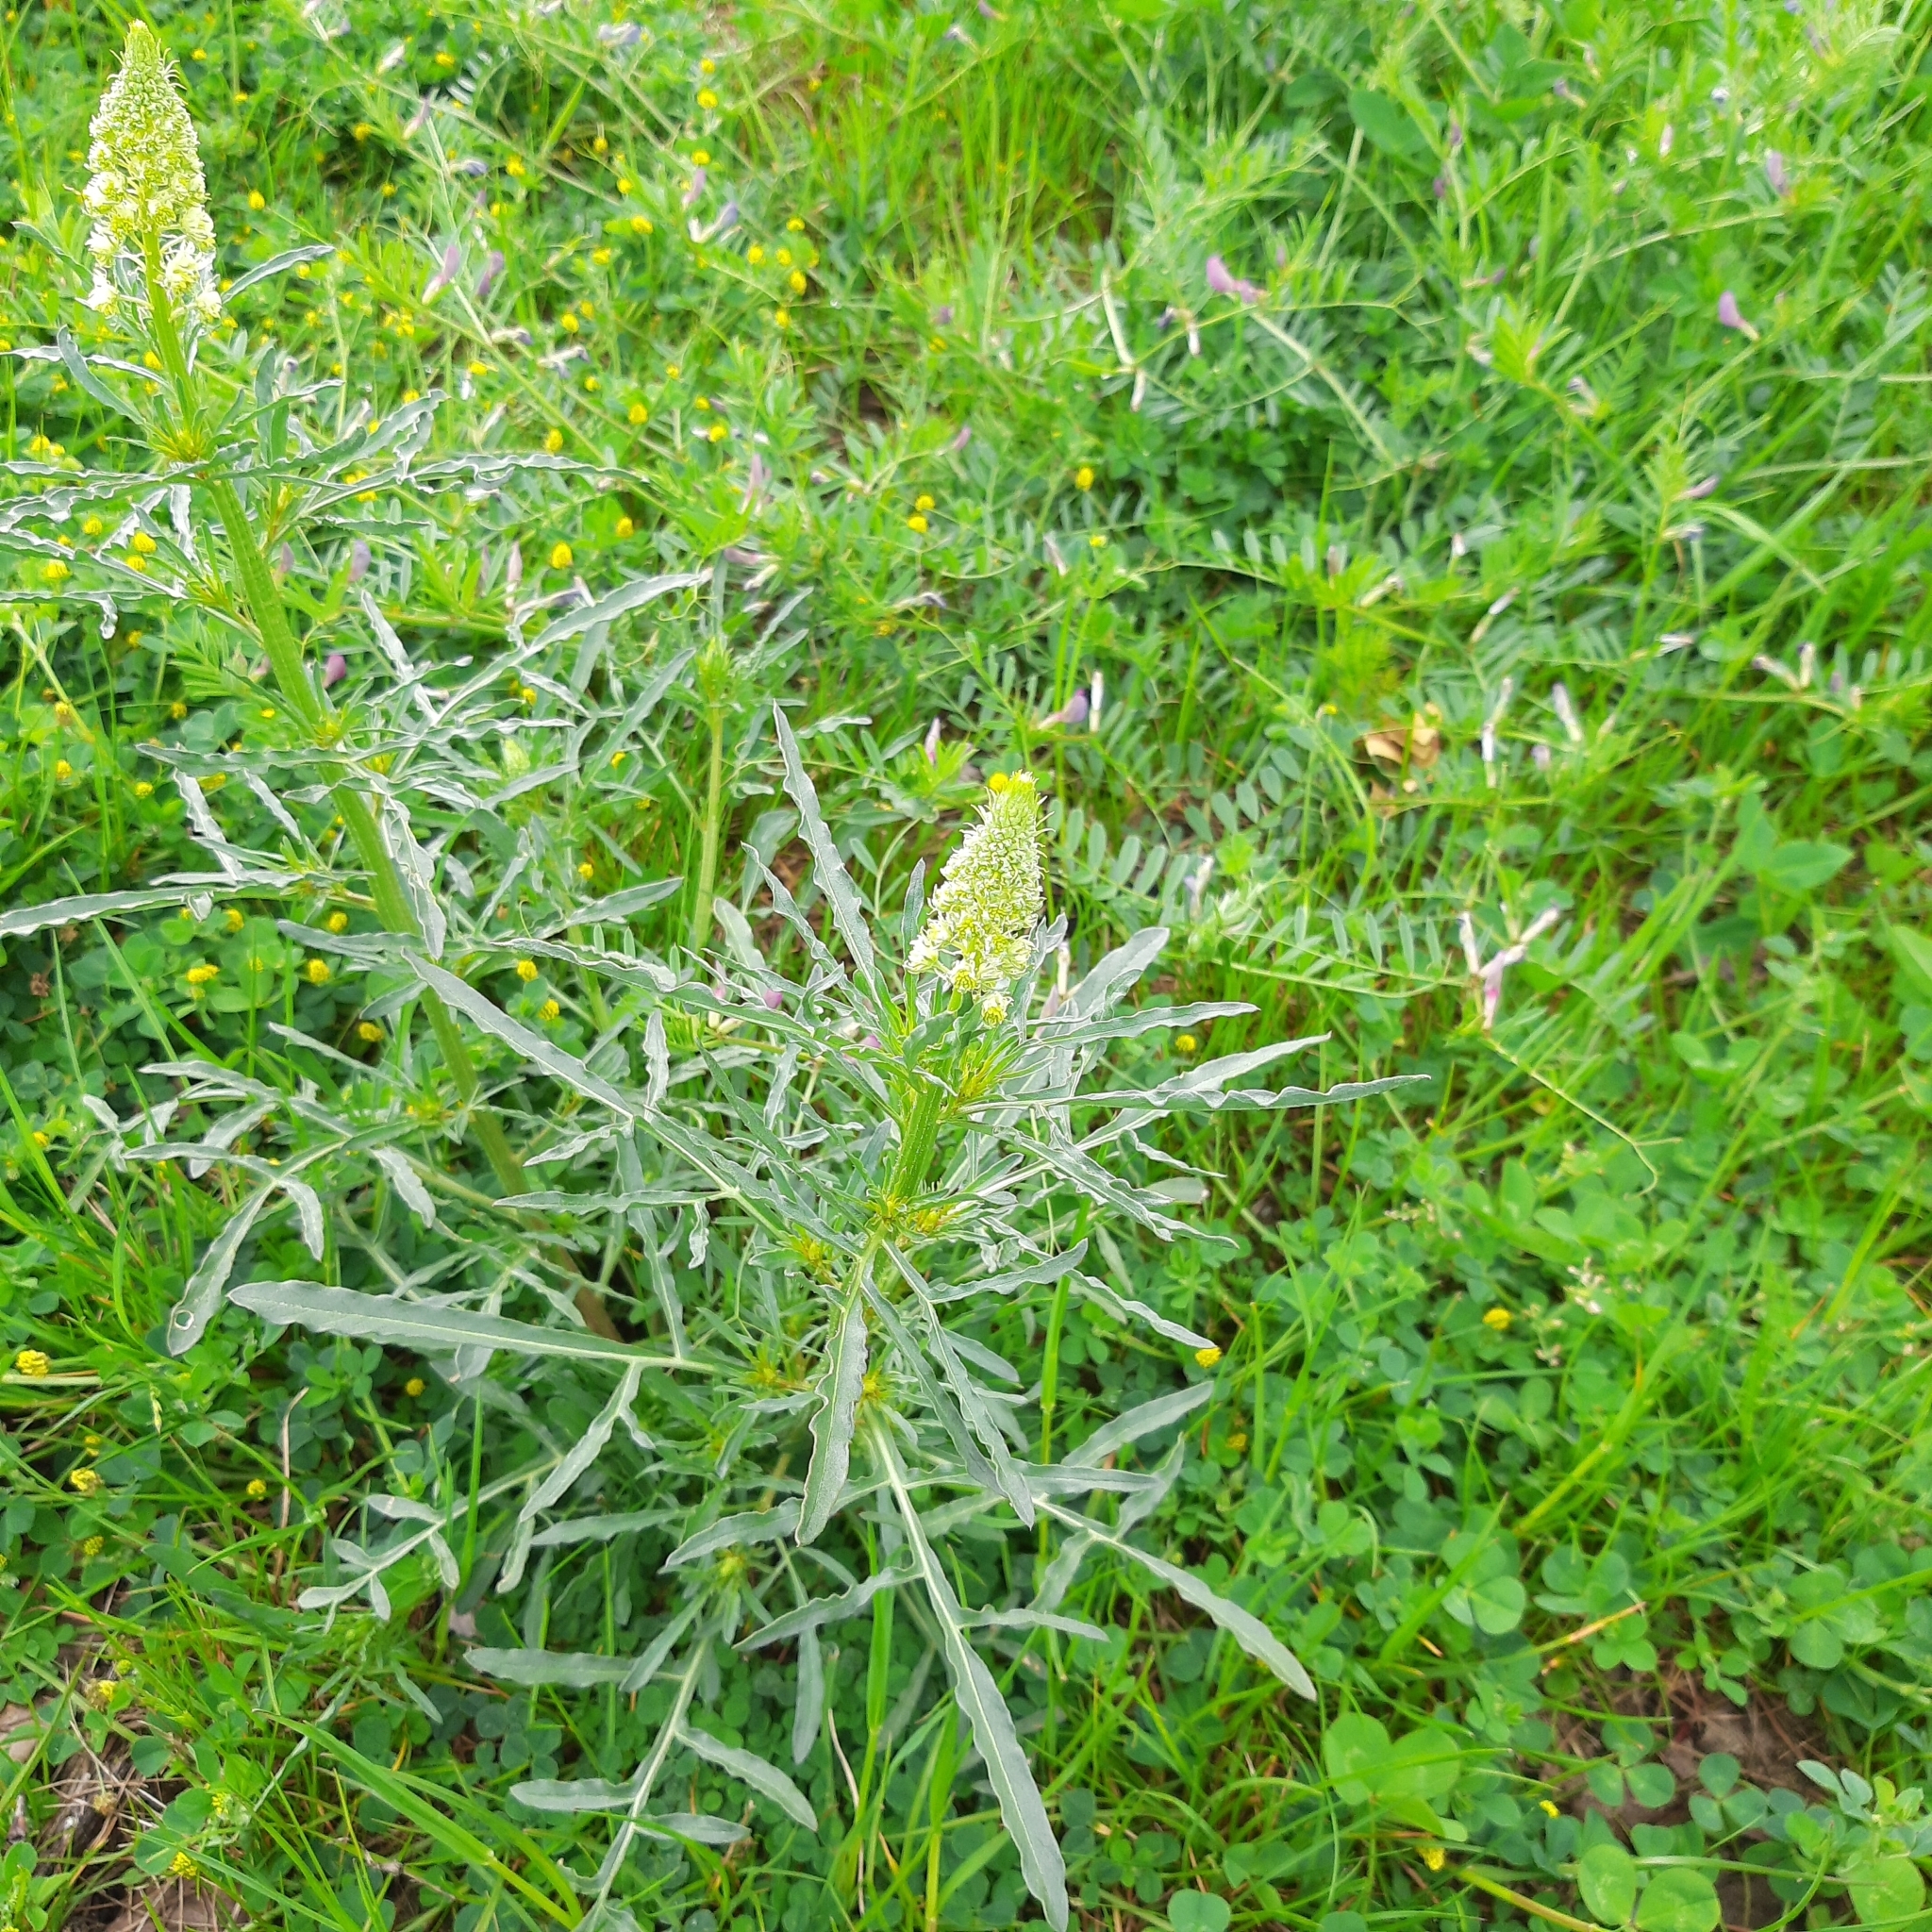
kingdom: Plantae
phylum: Tracheophyta
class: Magnoliopsida
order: Brassicales
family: Resedaceae
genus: Reseda
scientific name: Reseda lutea
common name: Wild mignonette
